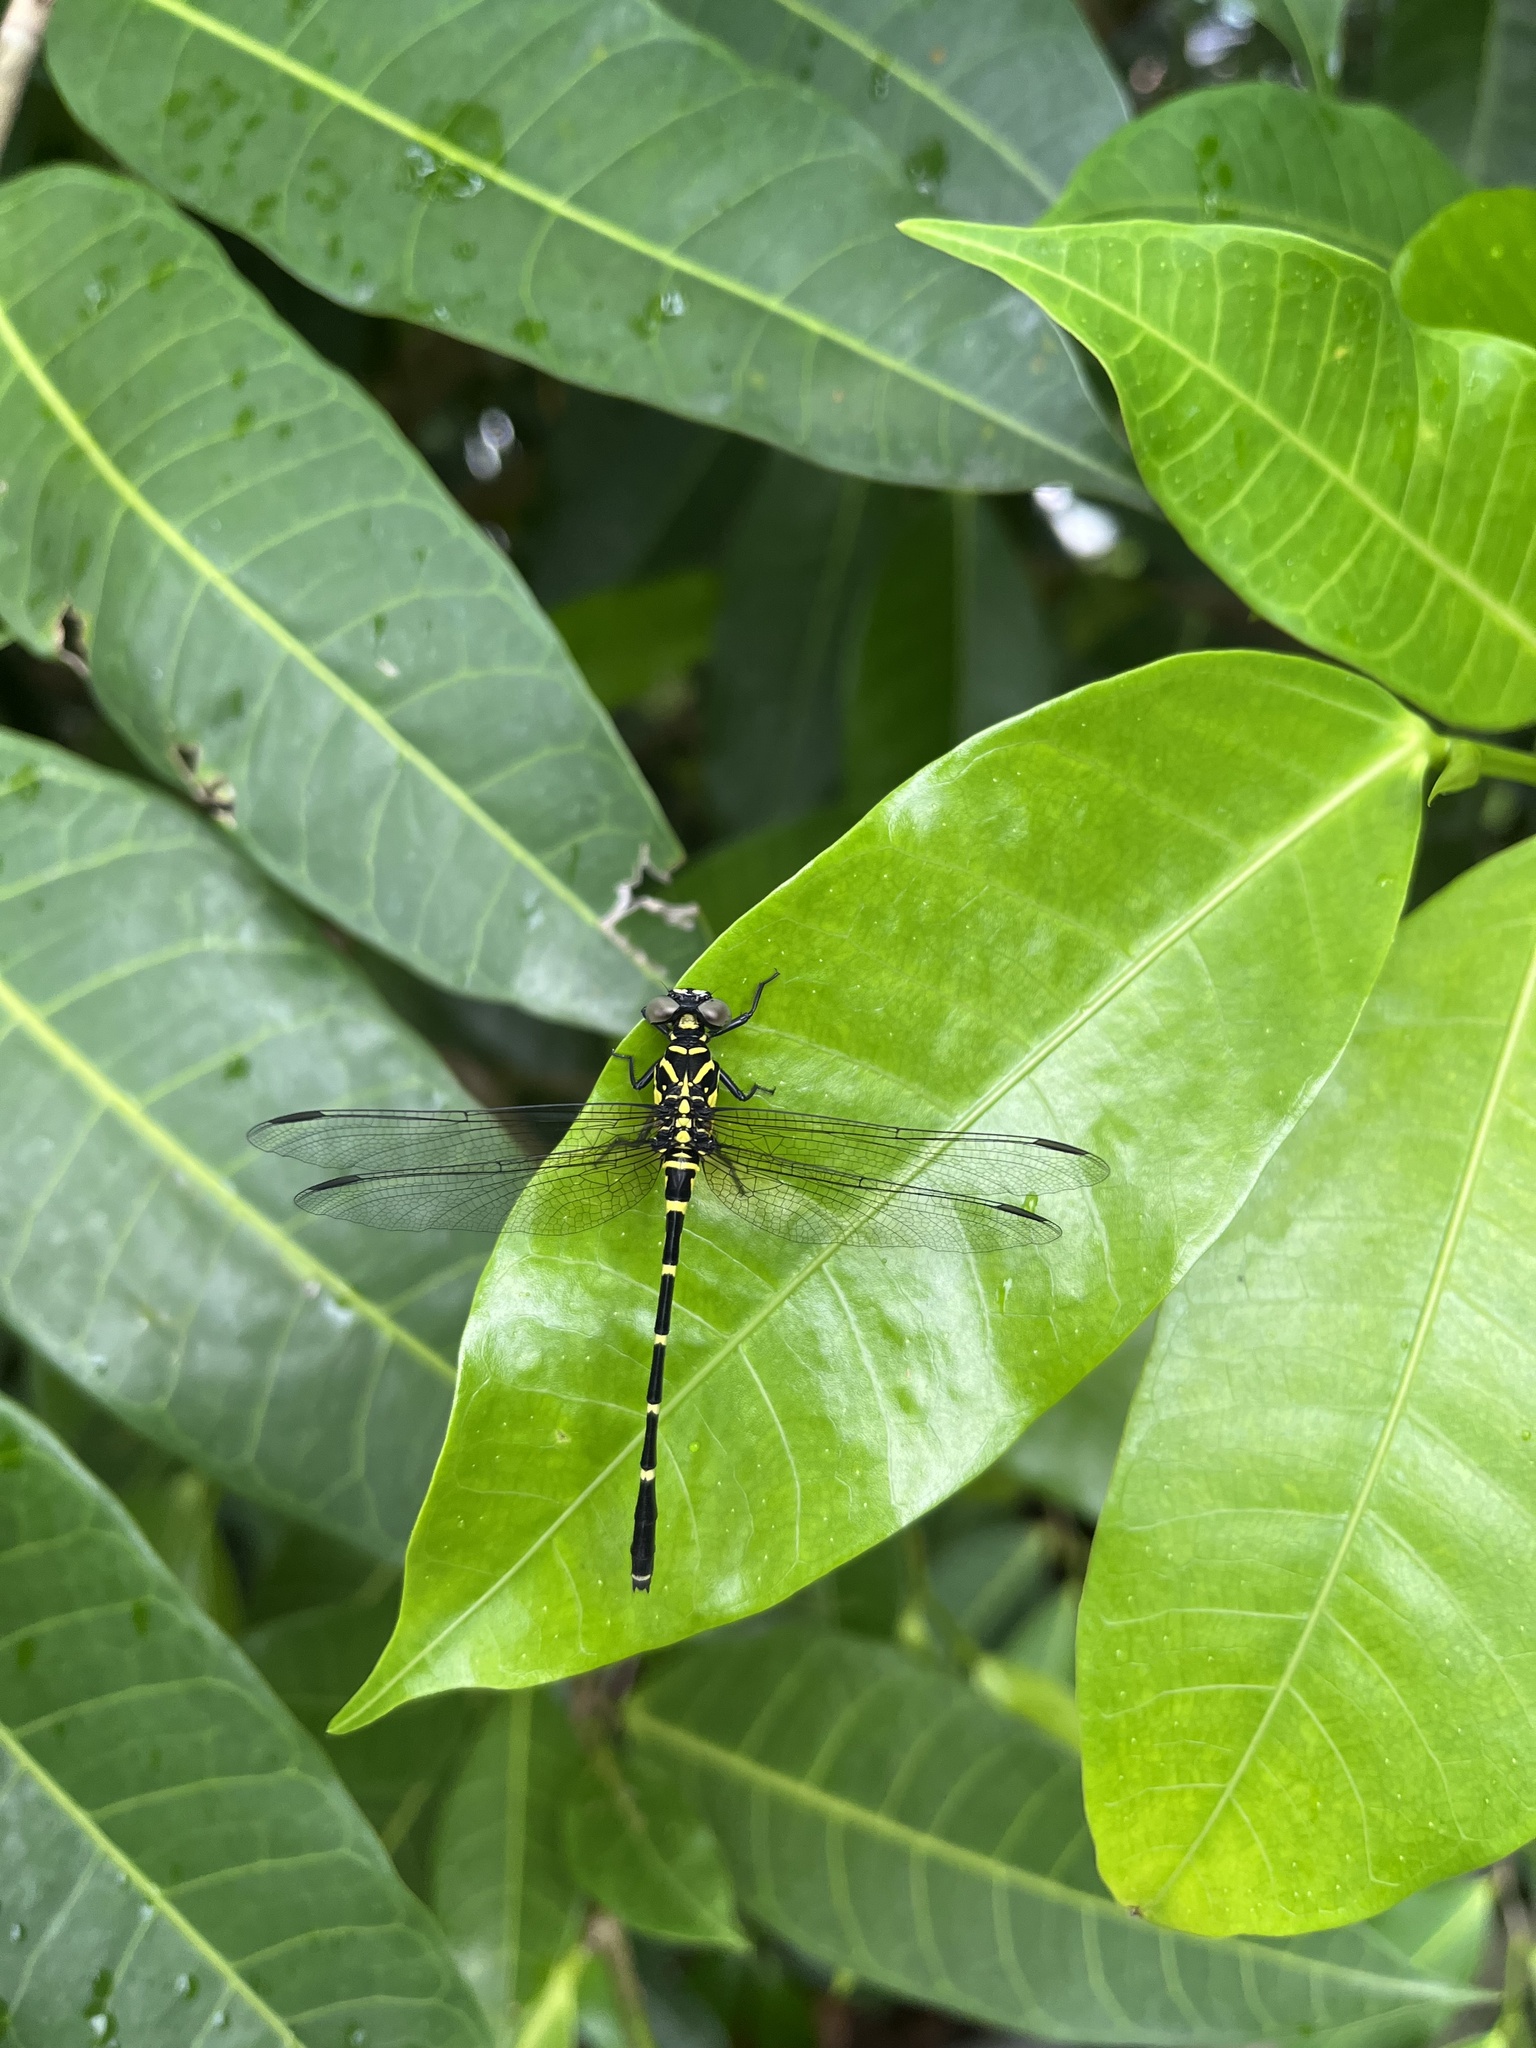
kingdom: Animalia
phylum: Arthropoda
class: Insecta
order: Odonata
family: Gomphidae
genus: Burmagomphus
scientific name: Burmagomphus vermicularis
